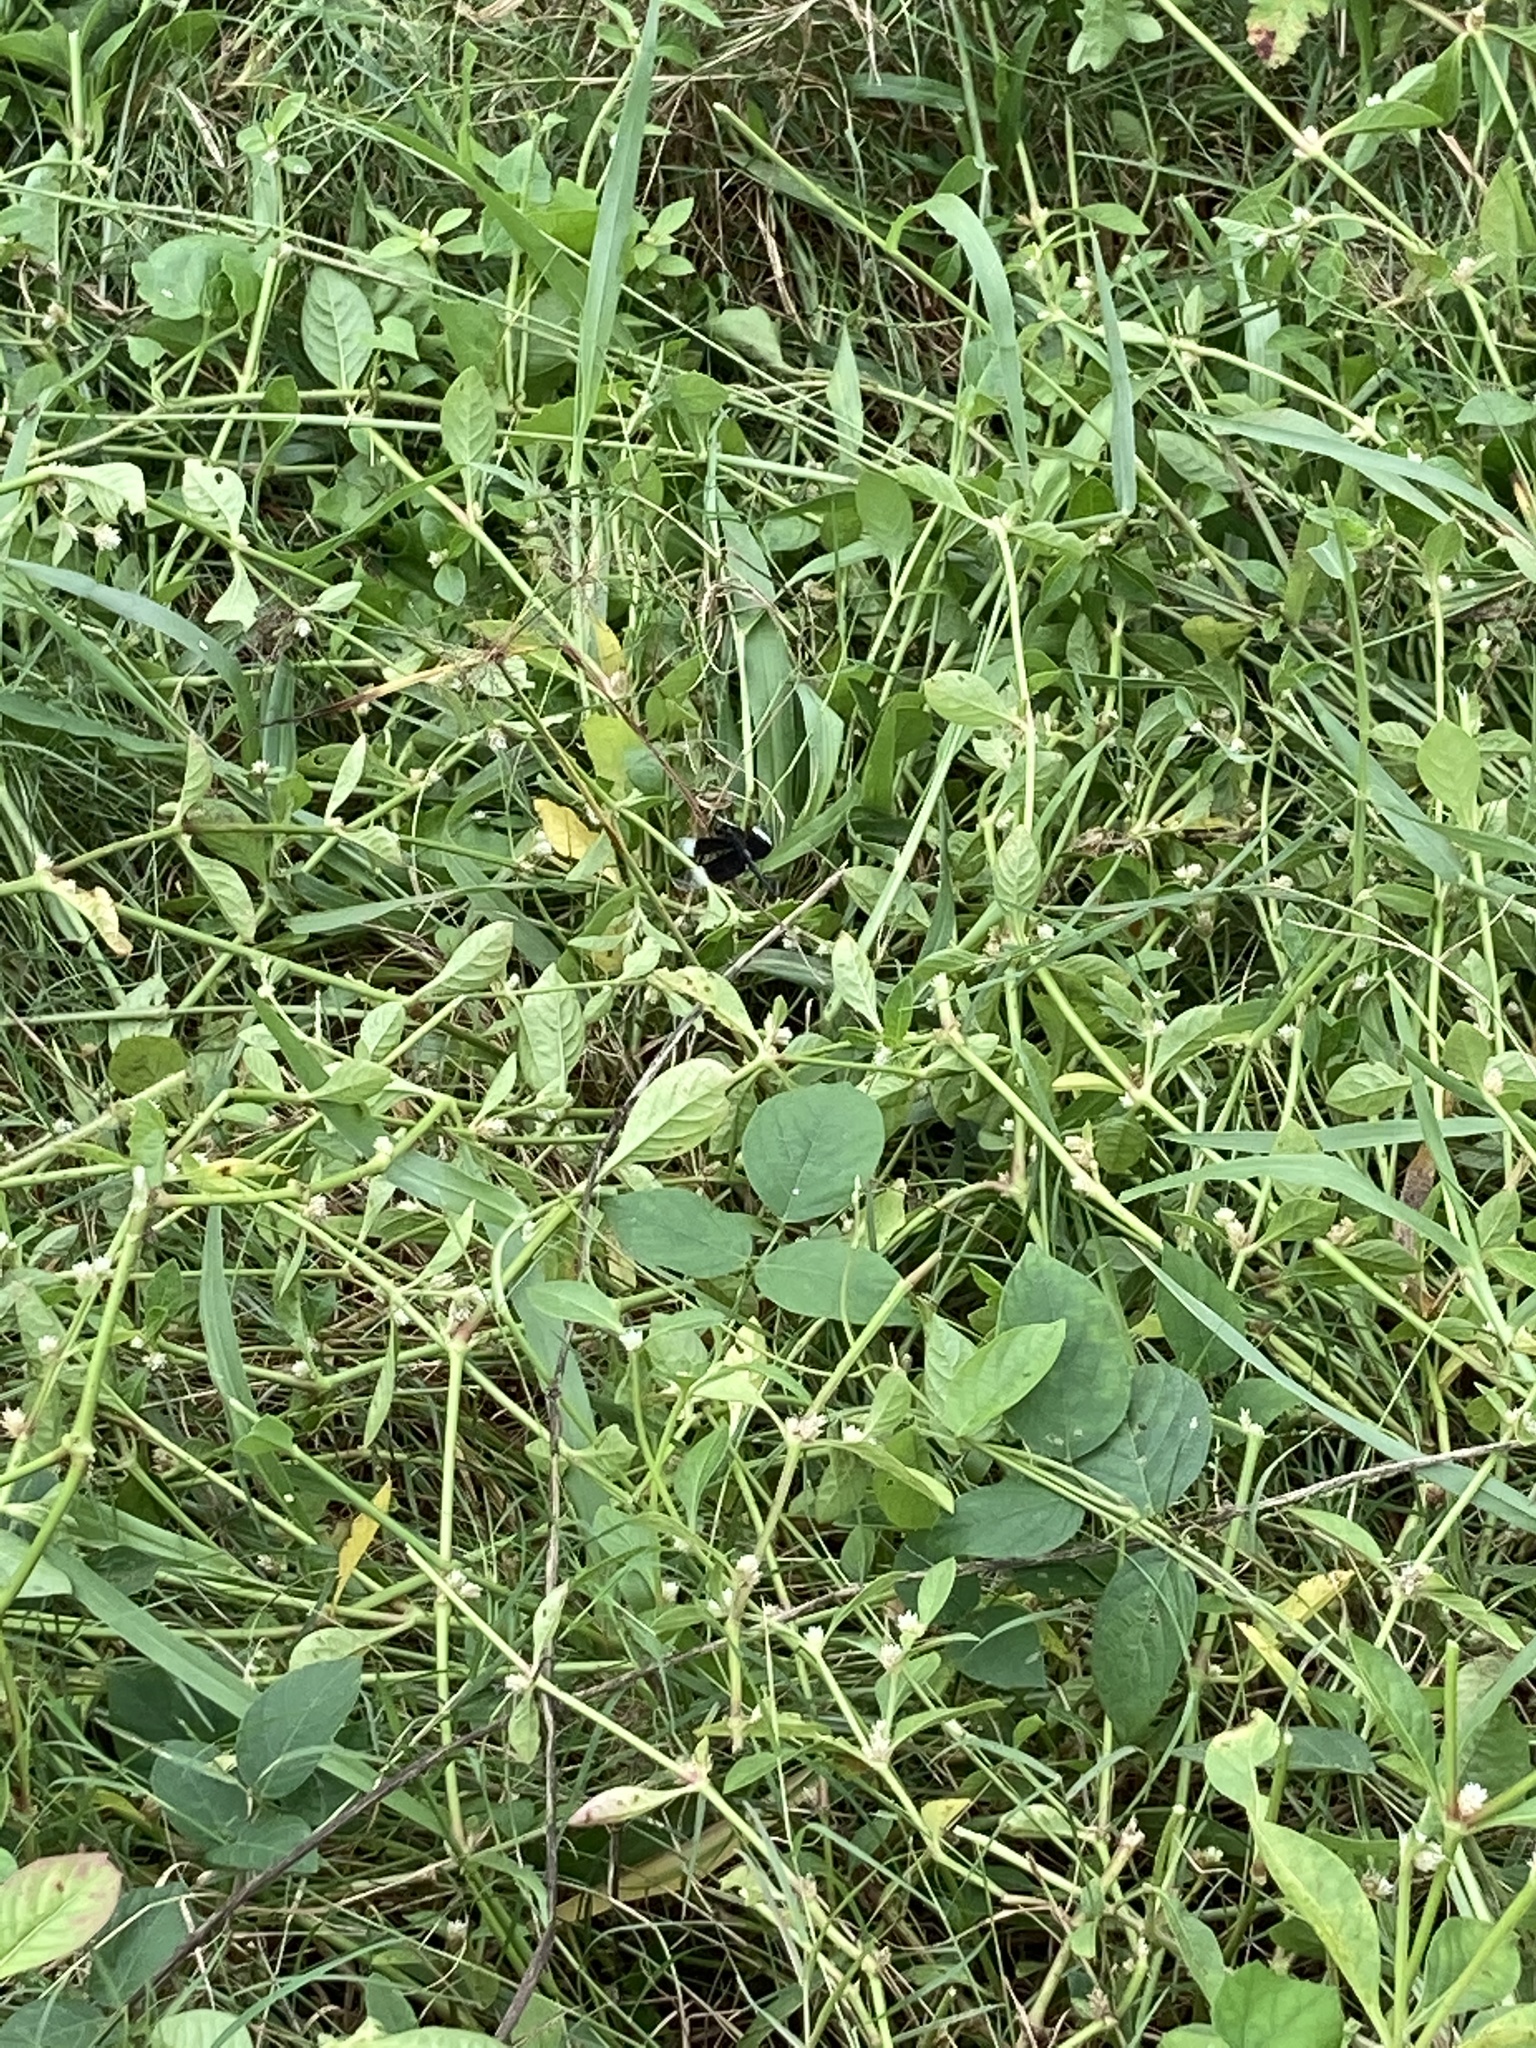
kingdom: Animalia
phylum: Arthropoda
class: Insecta
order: Odonata
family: Libellulidae
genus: Neurothemis
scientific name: Neurothemis tullia
